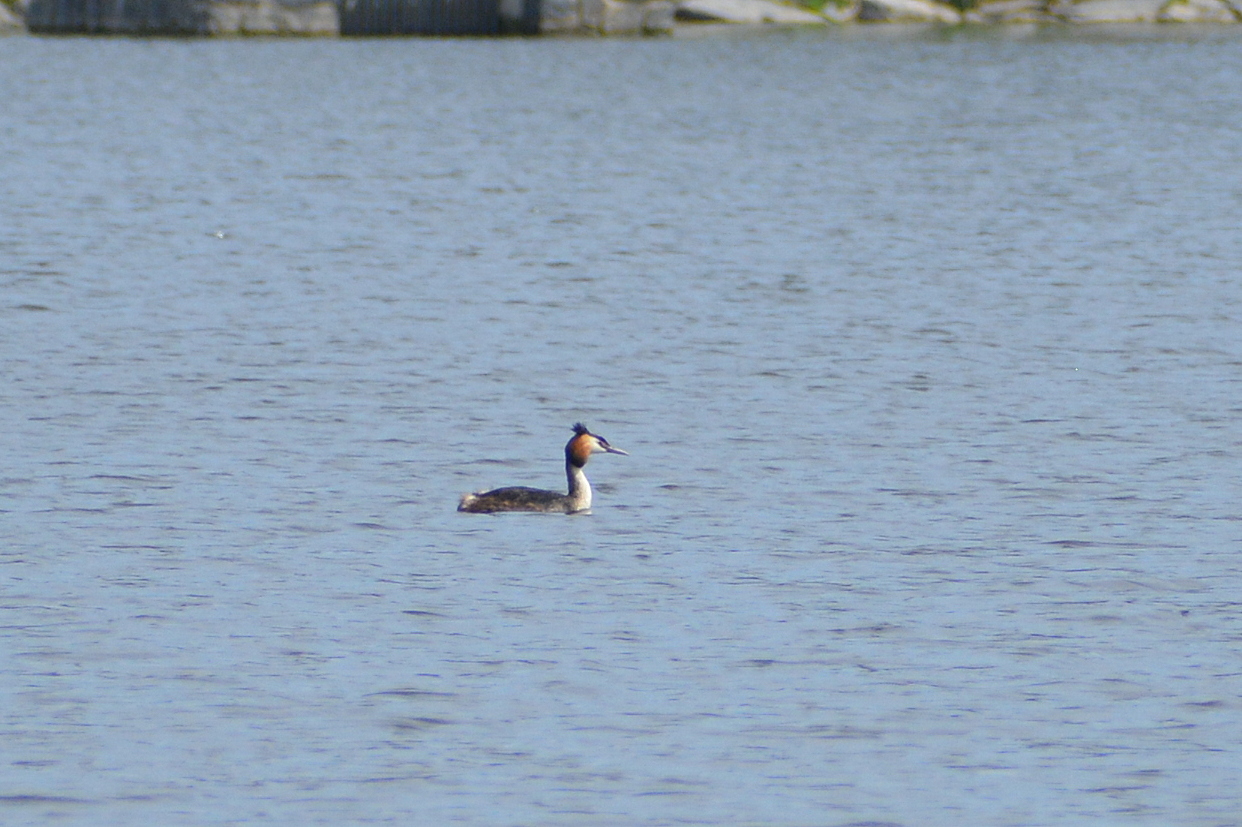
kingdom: Animalia
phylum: Chordata
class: Aves
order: Podicipediformes
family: Podicipedidae
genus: Podiceps
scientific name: Podiceps cristatus
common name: Great crested grebe
